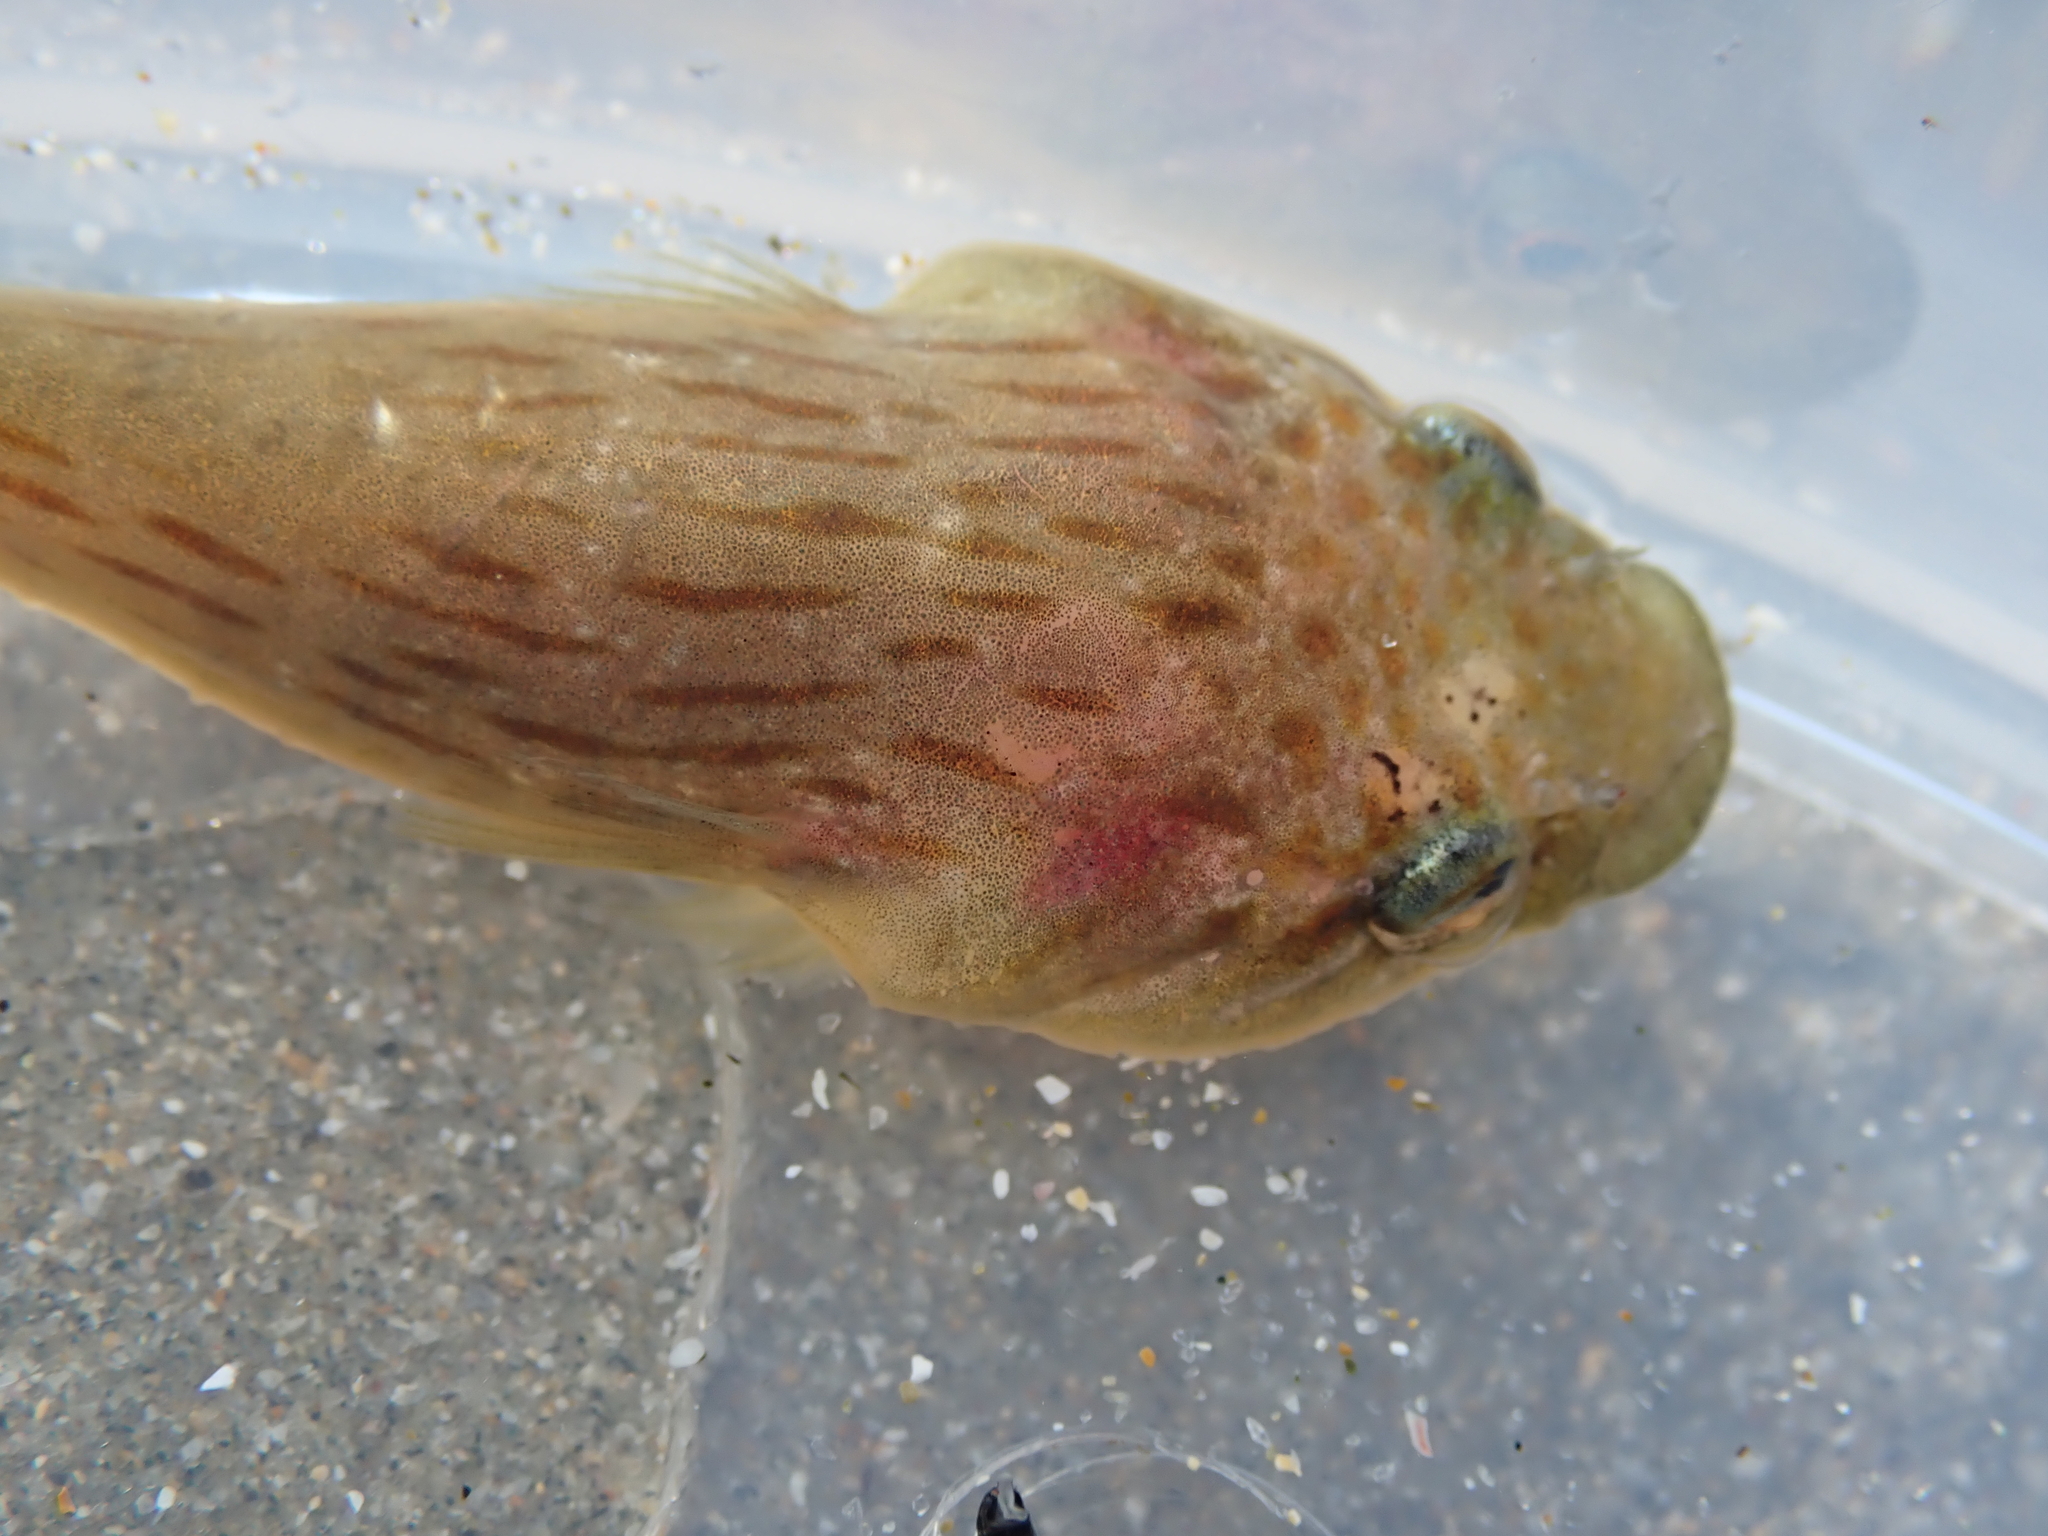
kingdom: Animalia
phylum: Chordata
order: Gobiesociformes
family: Gobiesocidae
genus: Trachelochismus
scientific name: Trachelochismus pinnulatus
